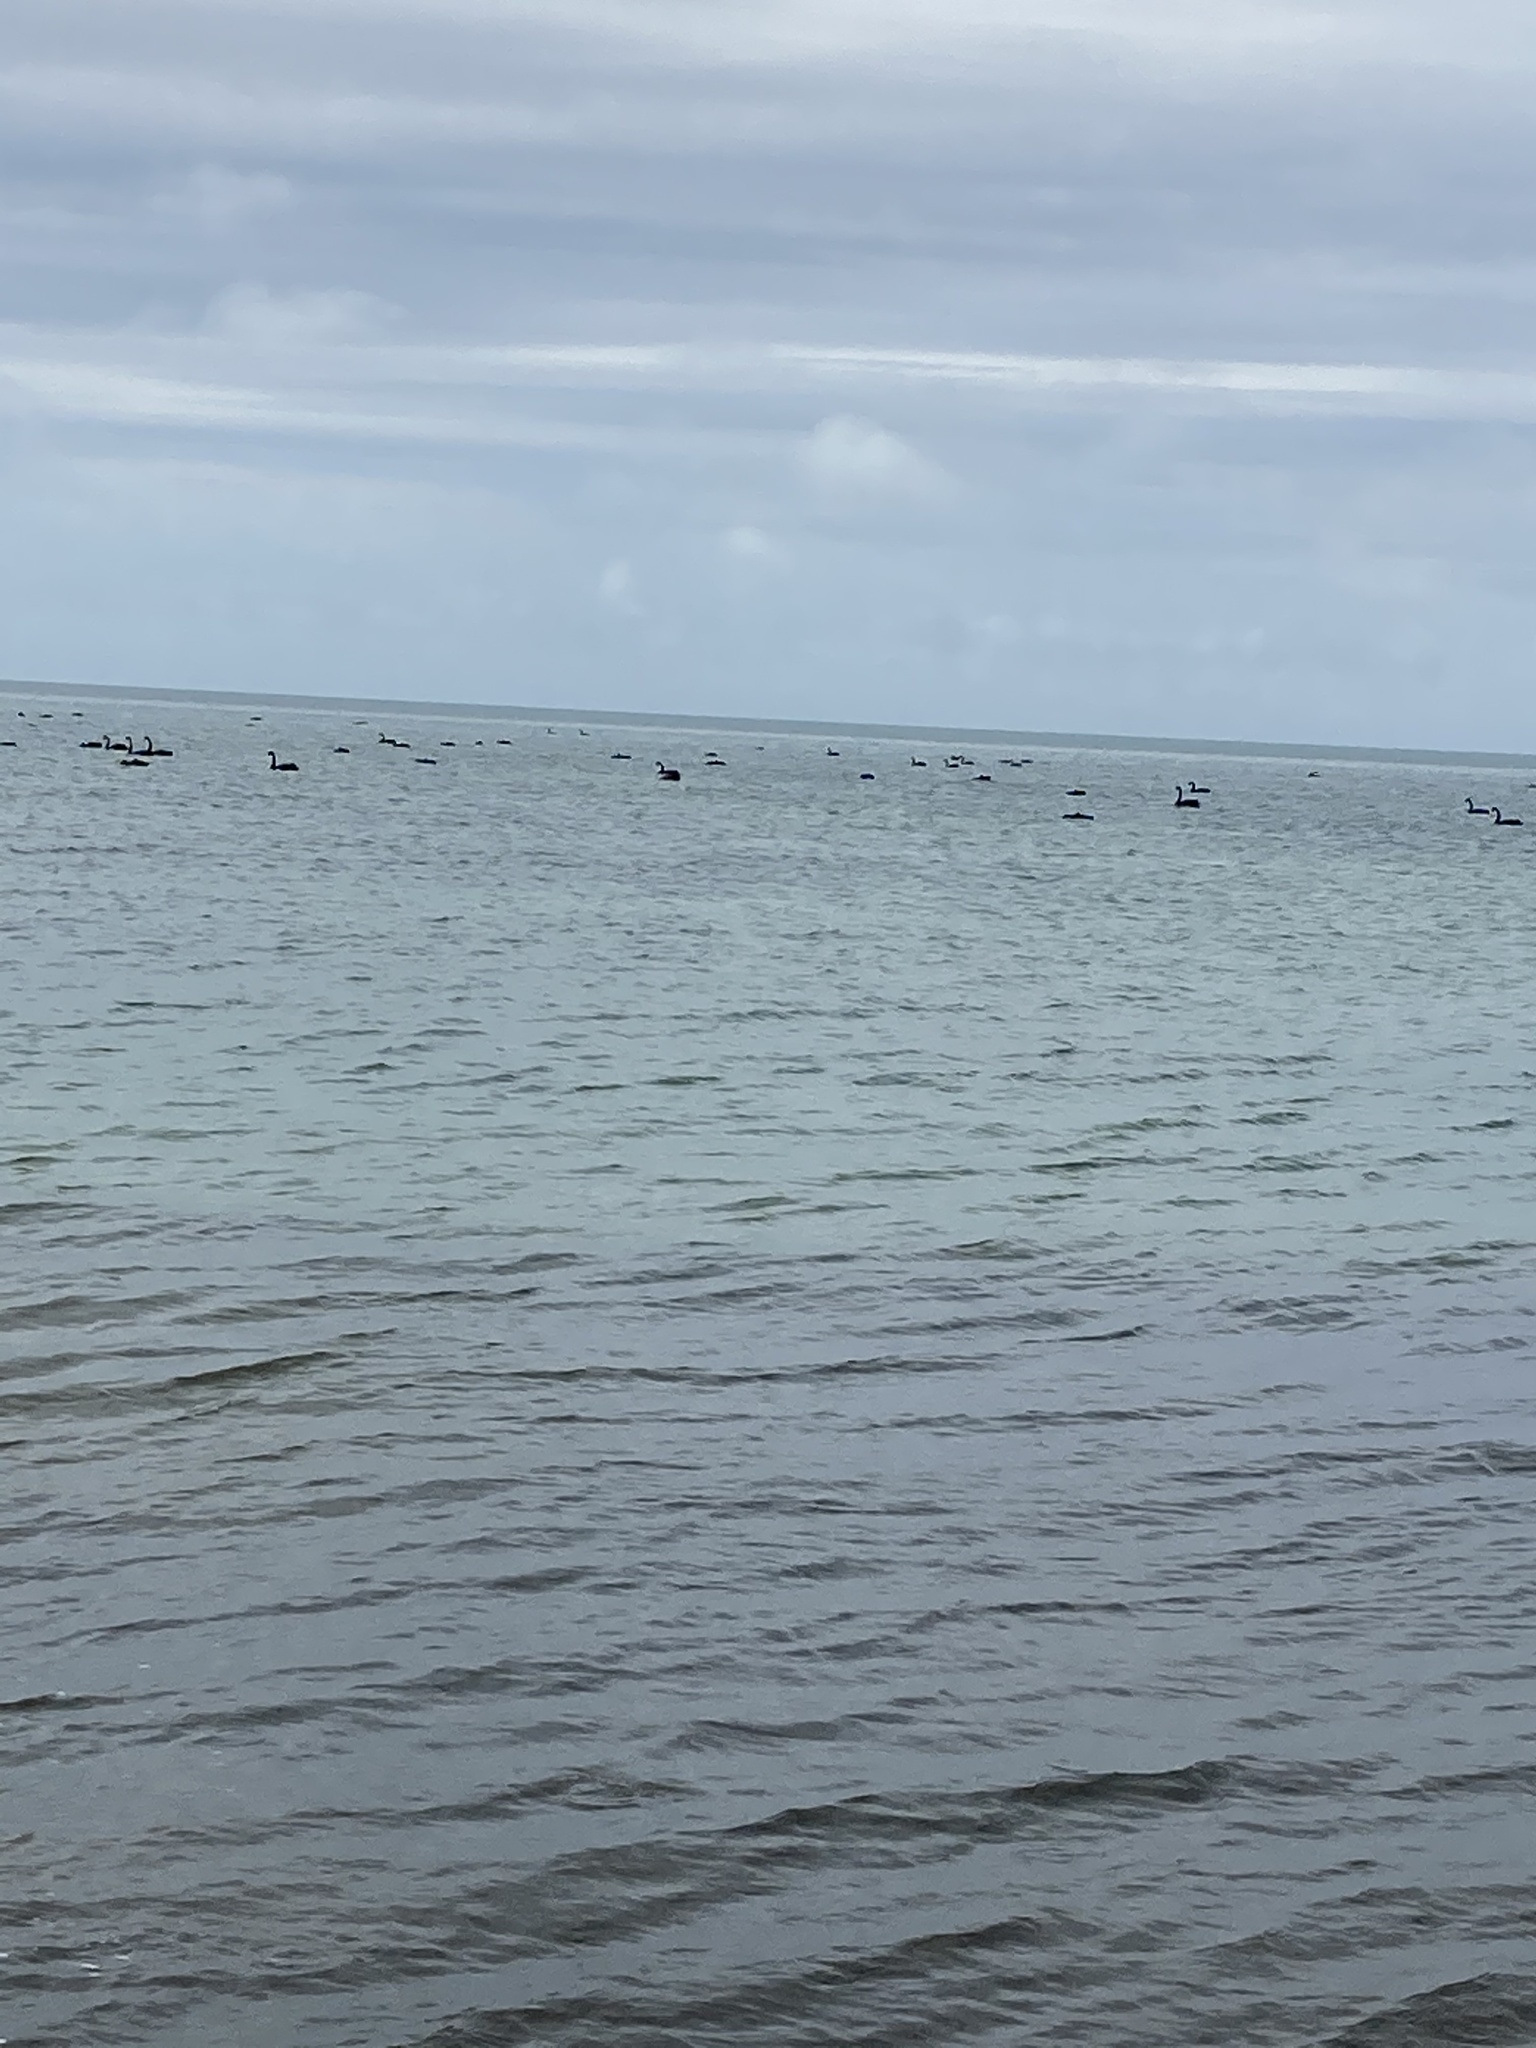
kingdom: Animalia
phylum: Chordata
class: Aves
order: Anseriformes
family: Anatidae
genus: Cygnus
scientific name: Cygnus atratus
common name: Black swan
